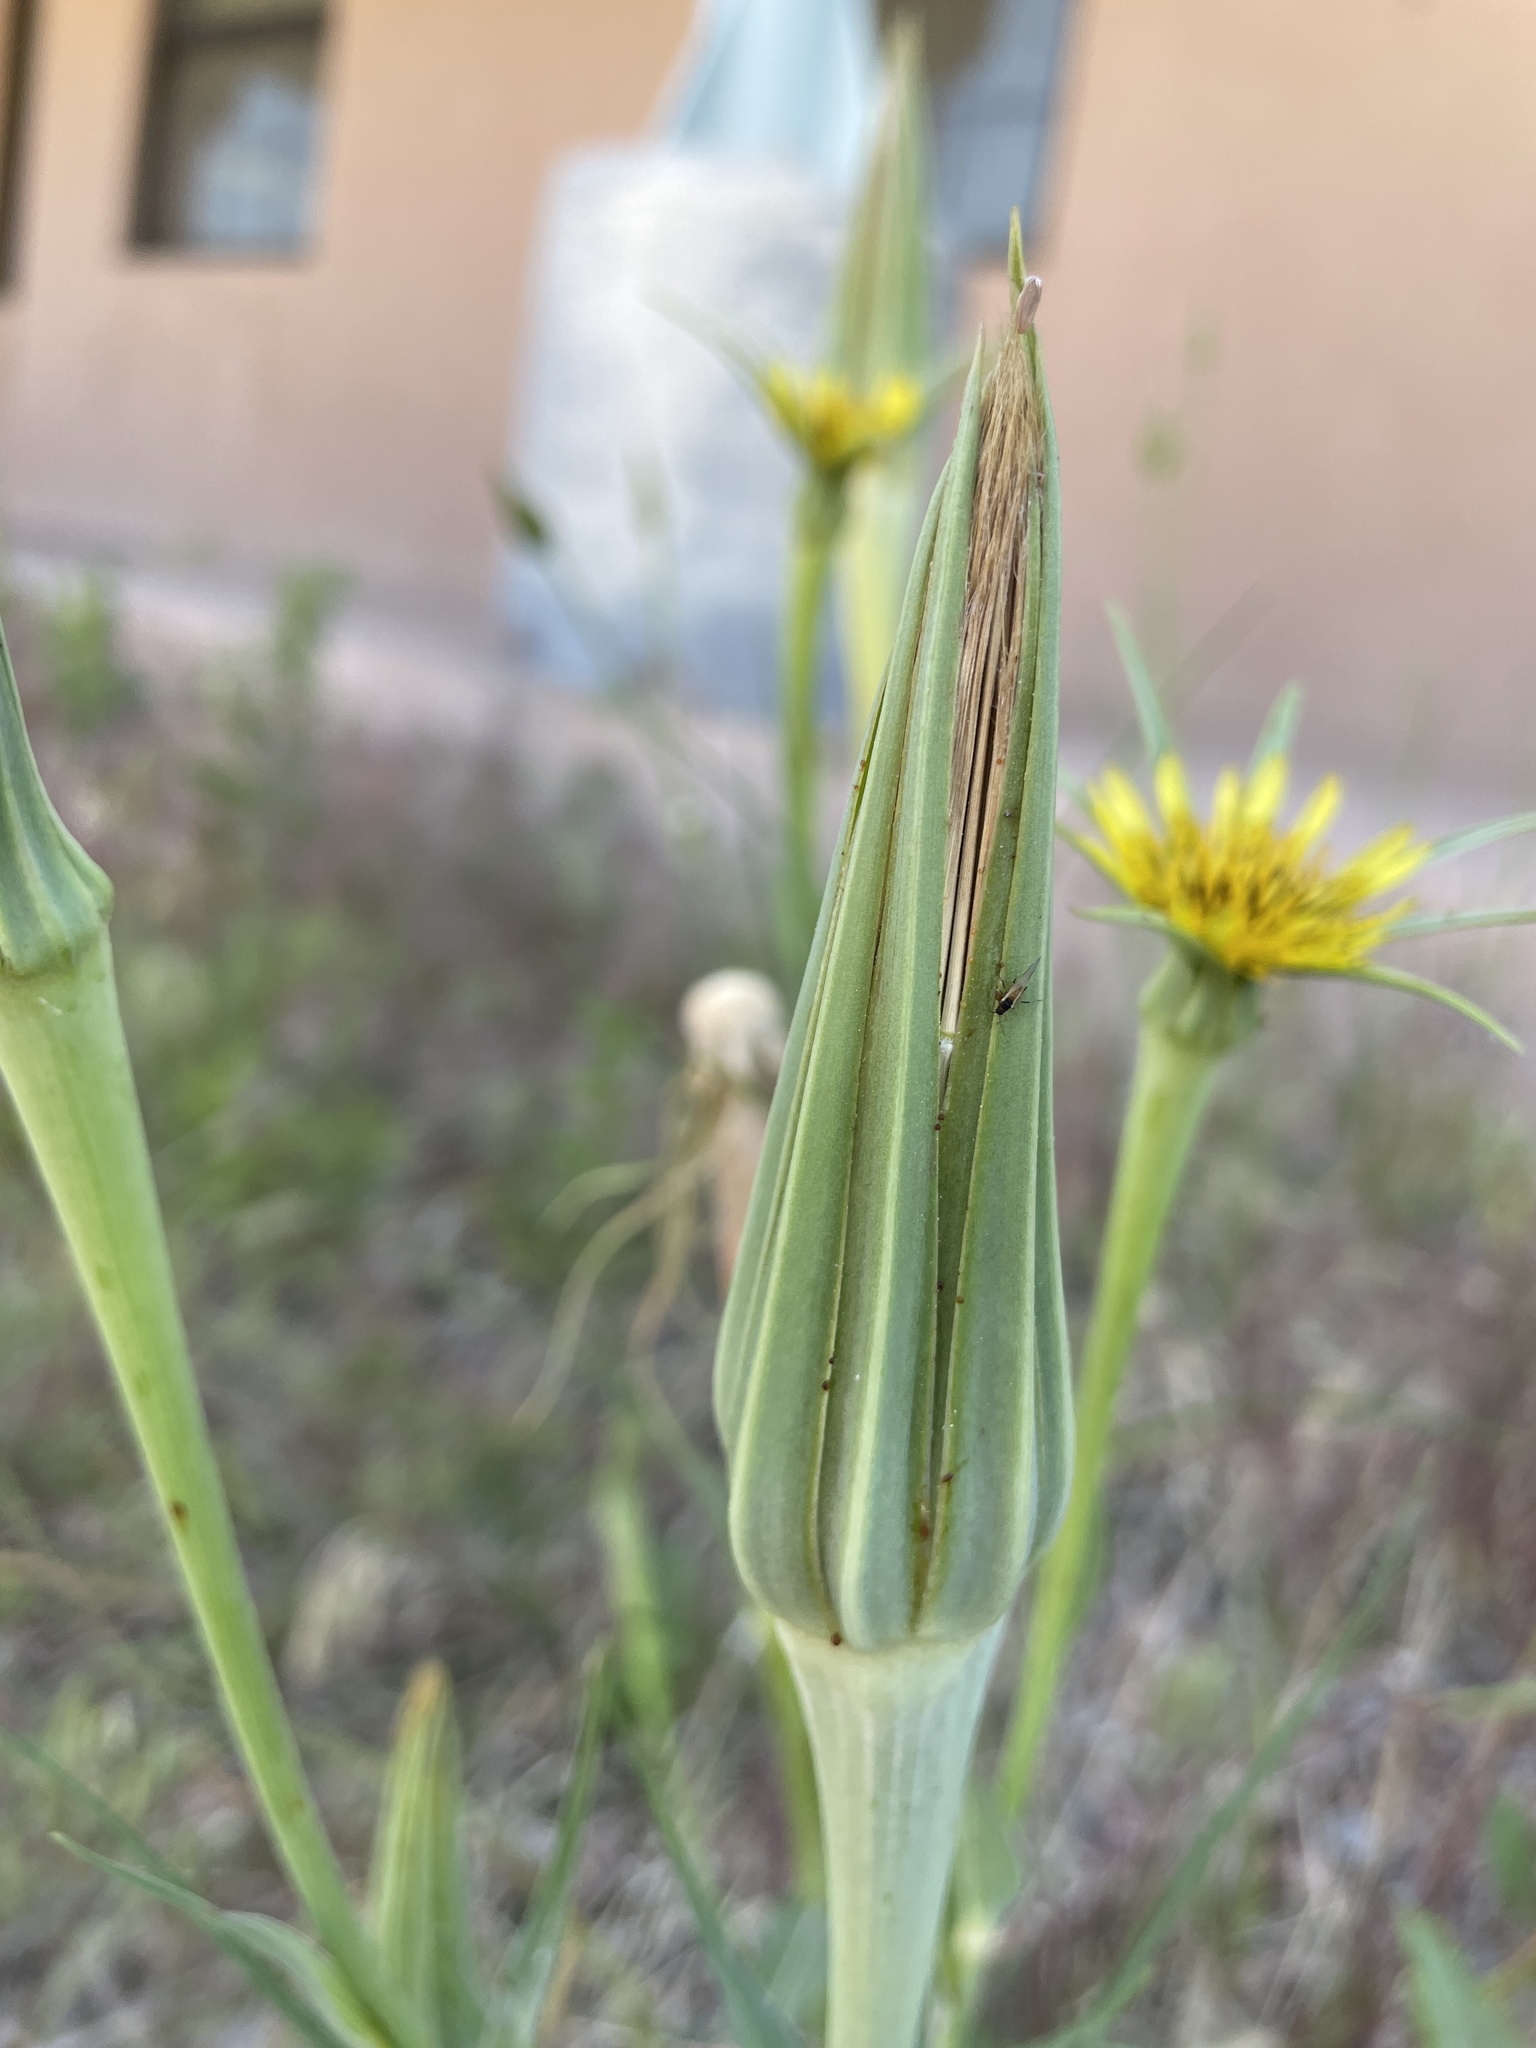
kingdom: Plantae
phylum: Tracheophyta
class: Magnoliopsida
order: Asterales
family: Asteraceae
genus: Tragopogon
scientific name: Tragopogon dubius
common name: Yellow salsify
